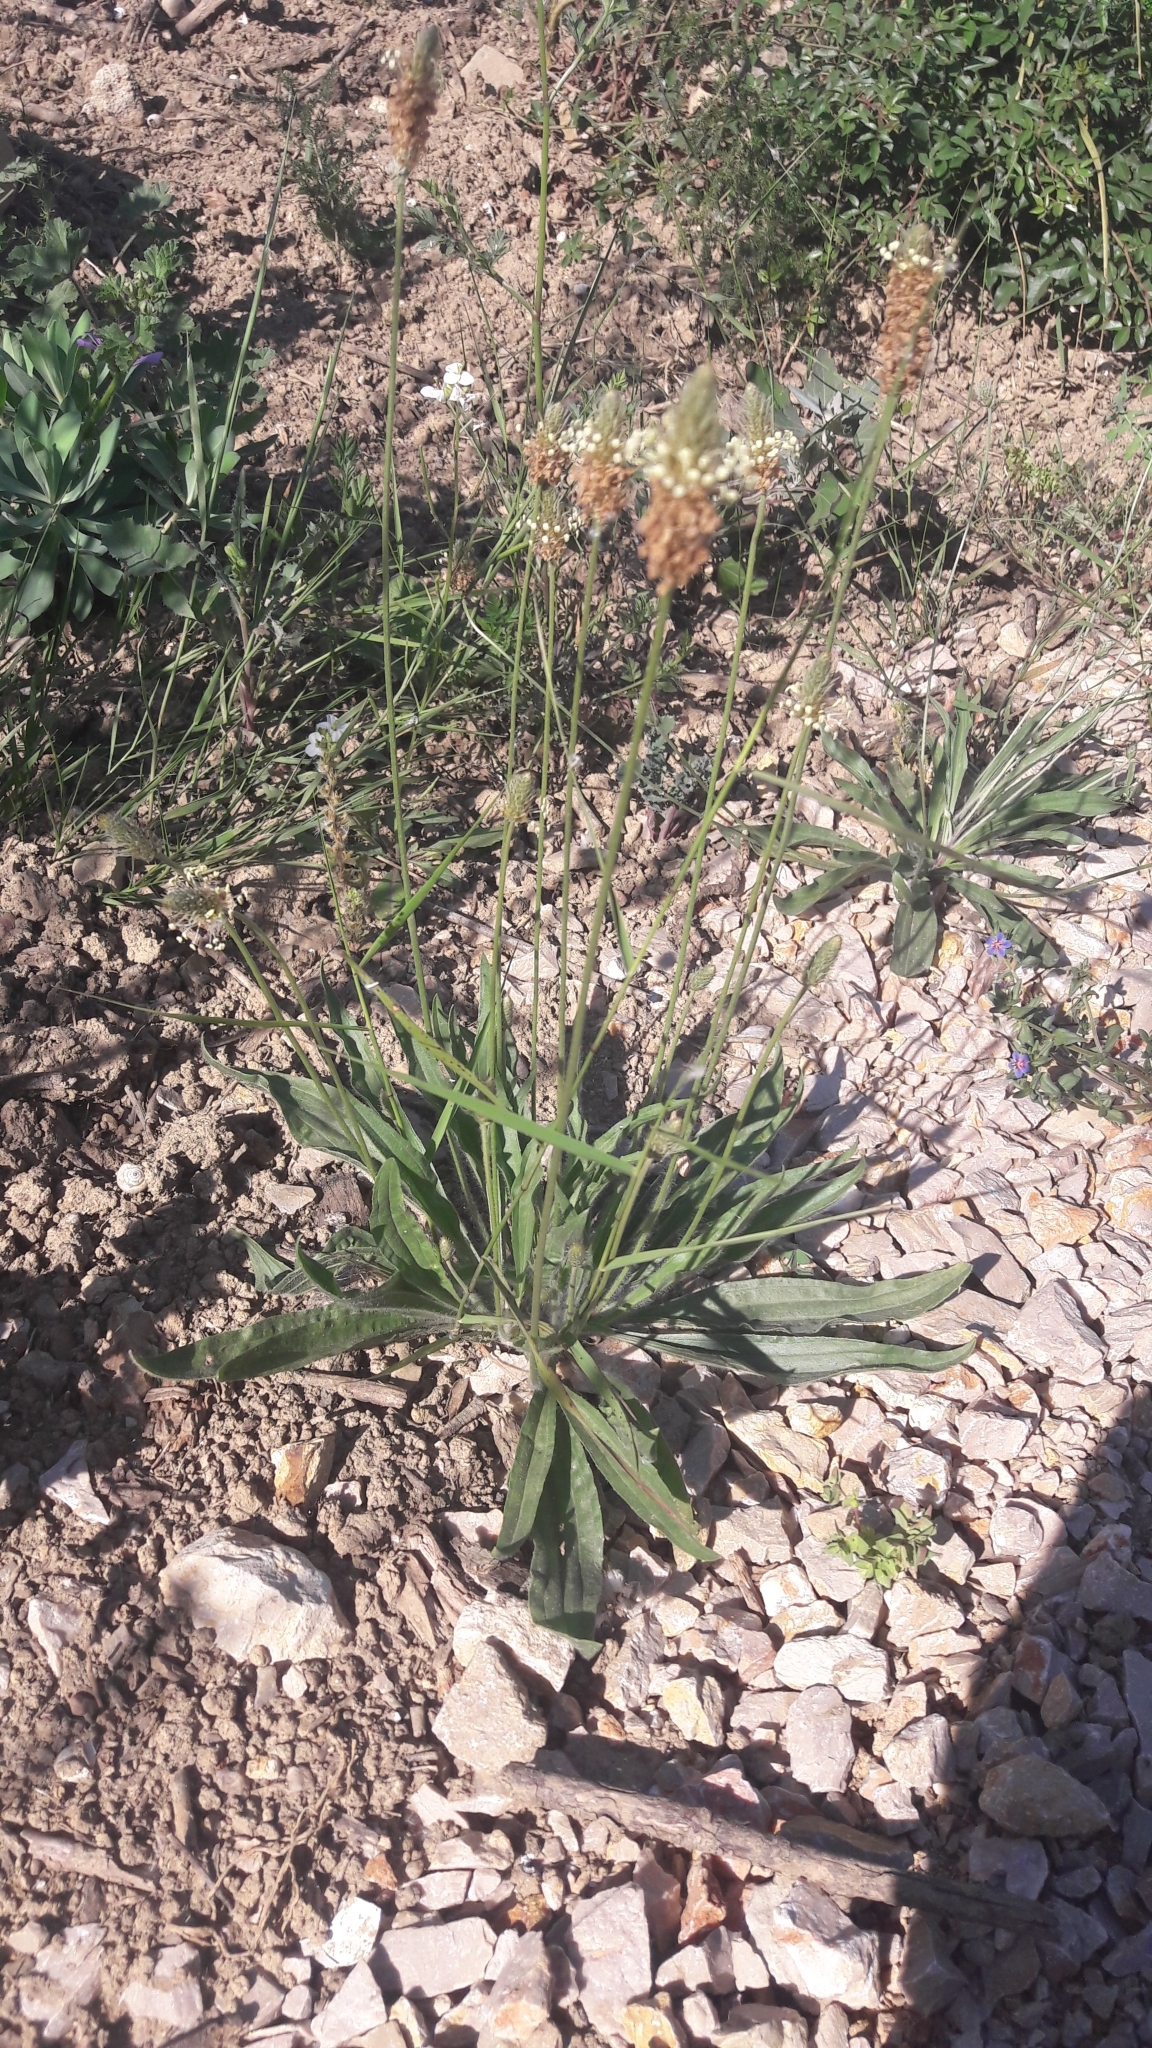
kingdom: Plantae
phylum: Tracheophyta
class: Magnoliopsida
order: Lamiales
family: Plantaginaceae
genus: Plantago
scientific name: Plantago lanceolata
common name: Ribwort plantain
